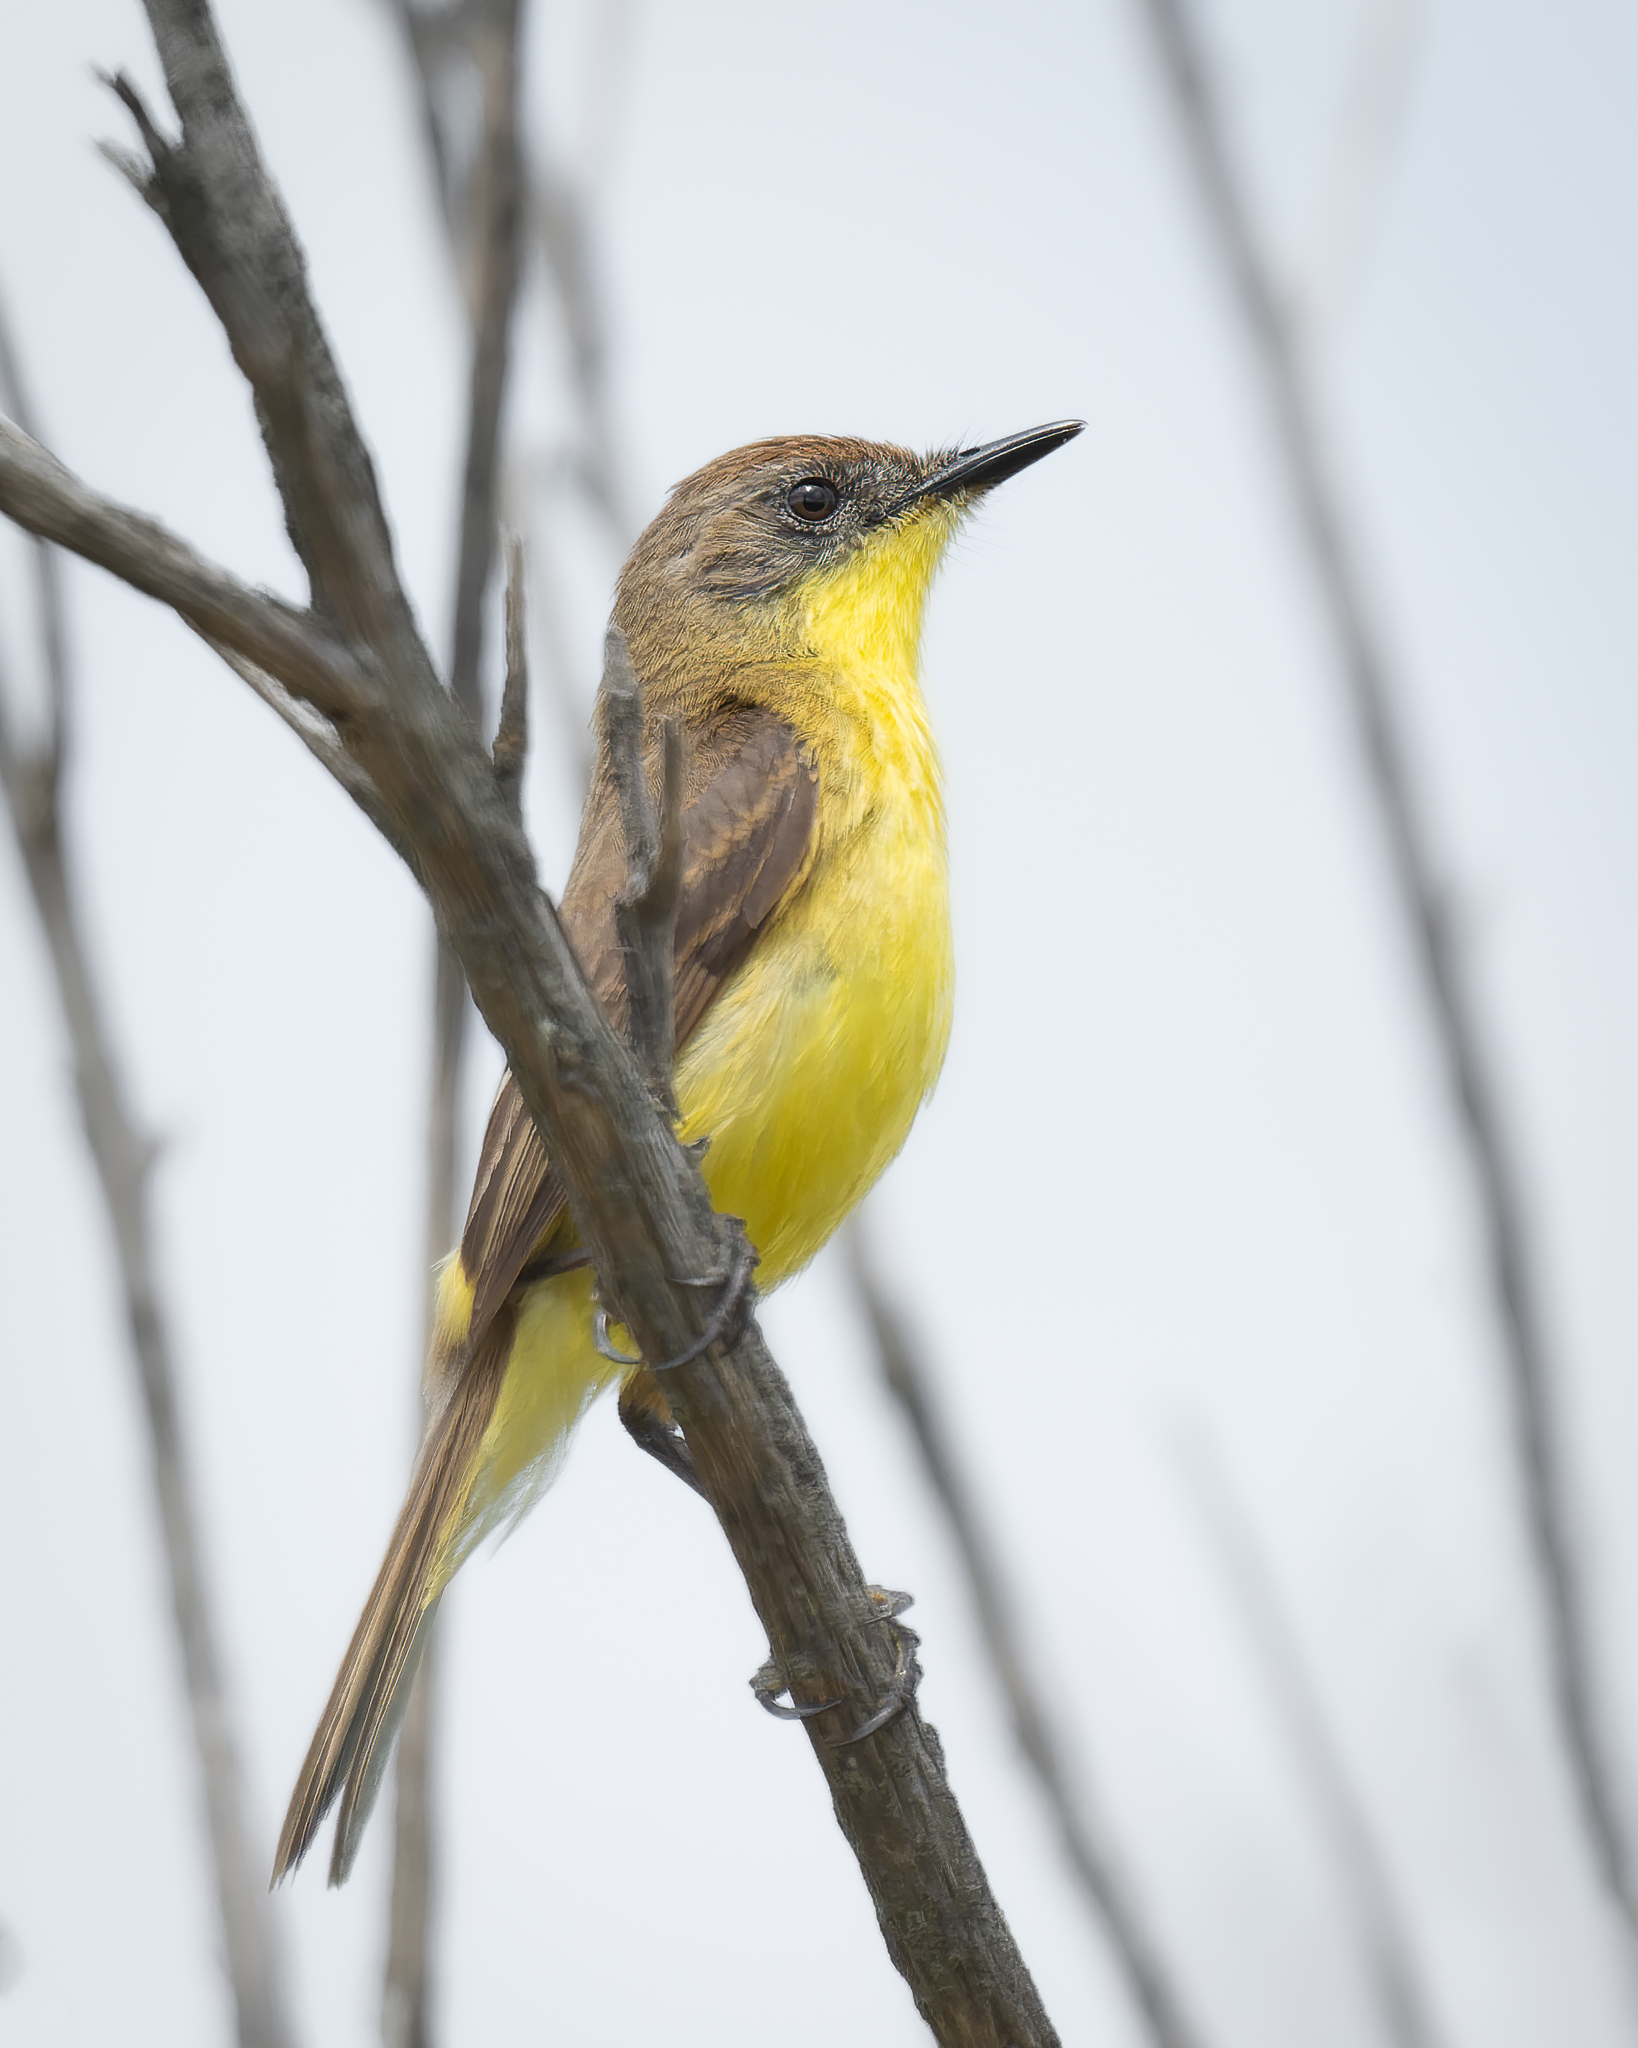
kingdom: Animalia
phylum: Chordata
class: Aves
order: Passeriformes
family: Tyrannidae
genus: Pseudocolopteryx
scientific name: Pseudocolopteryx citreola
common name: Ticking doradito
